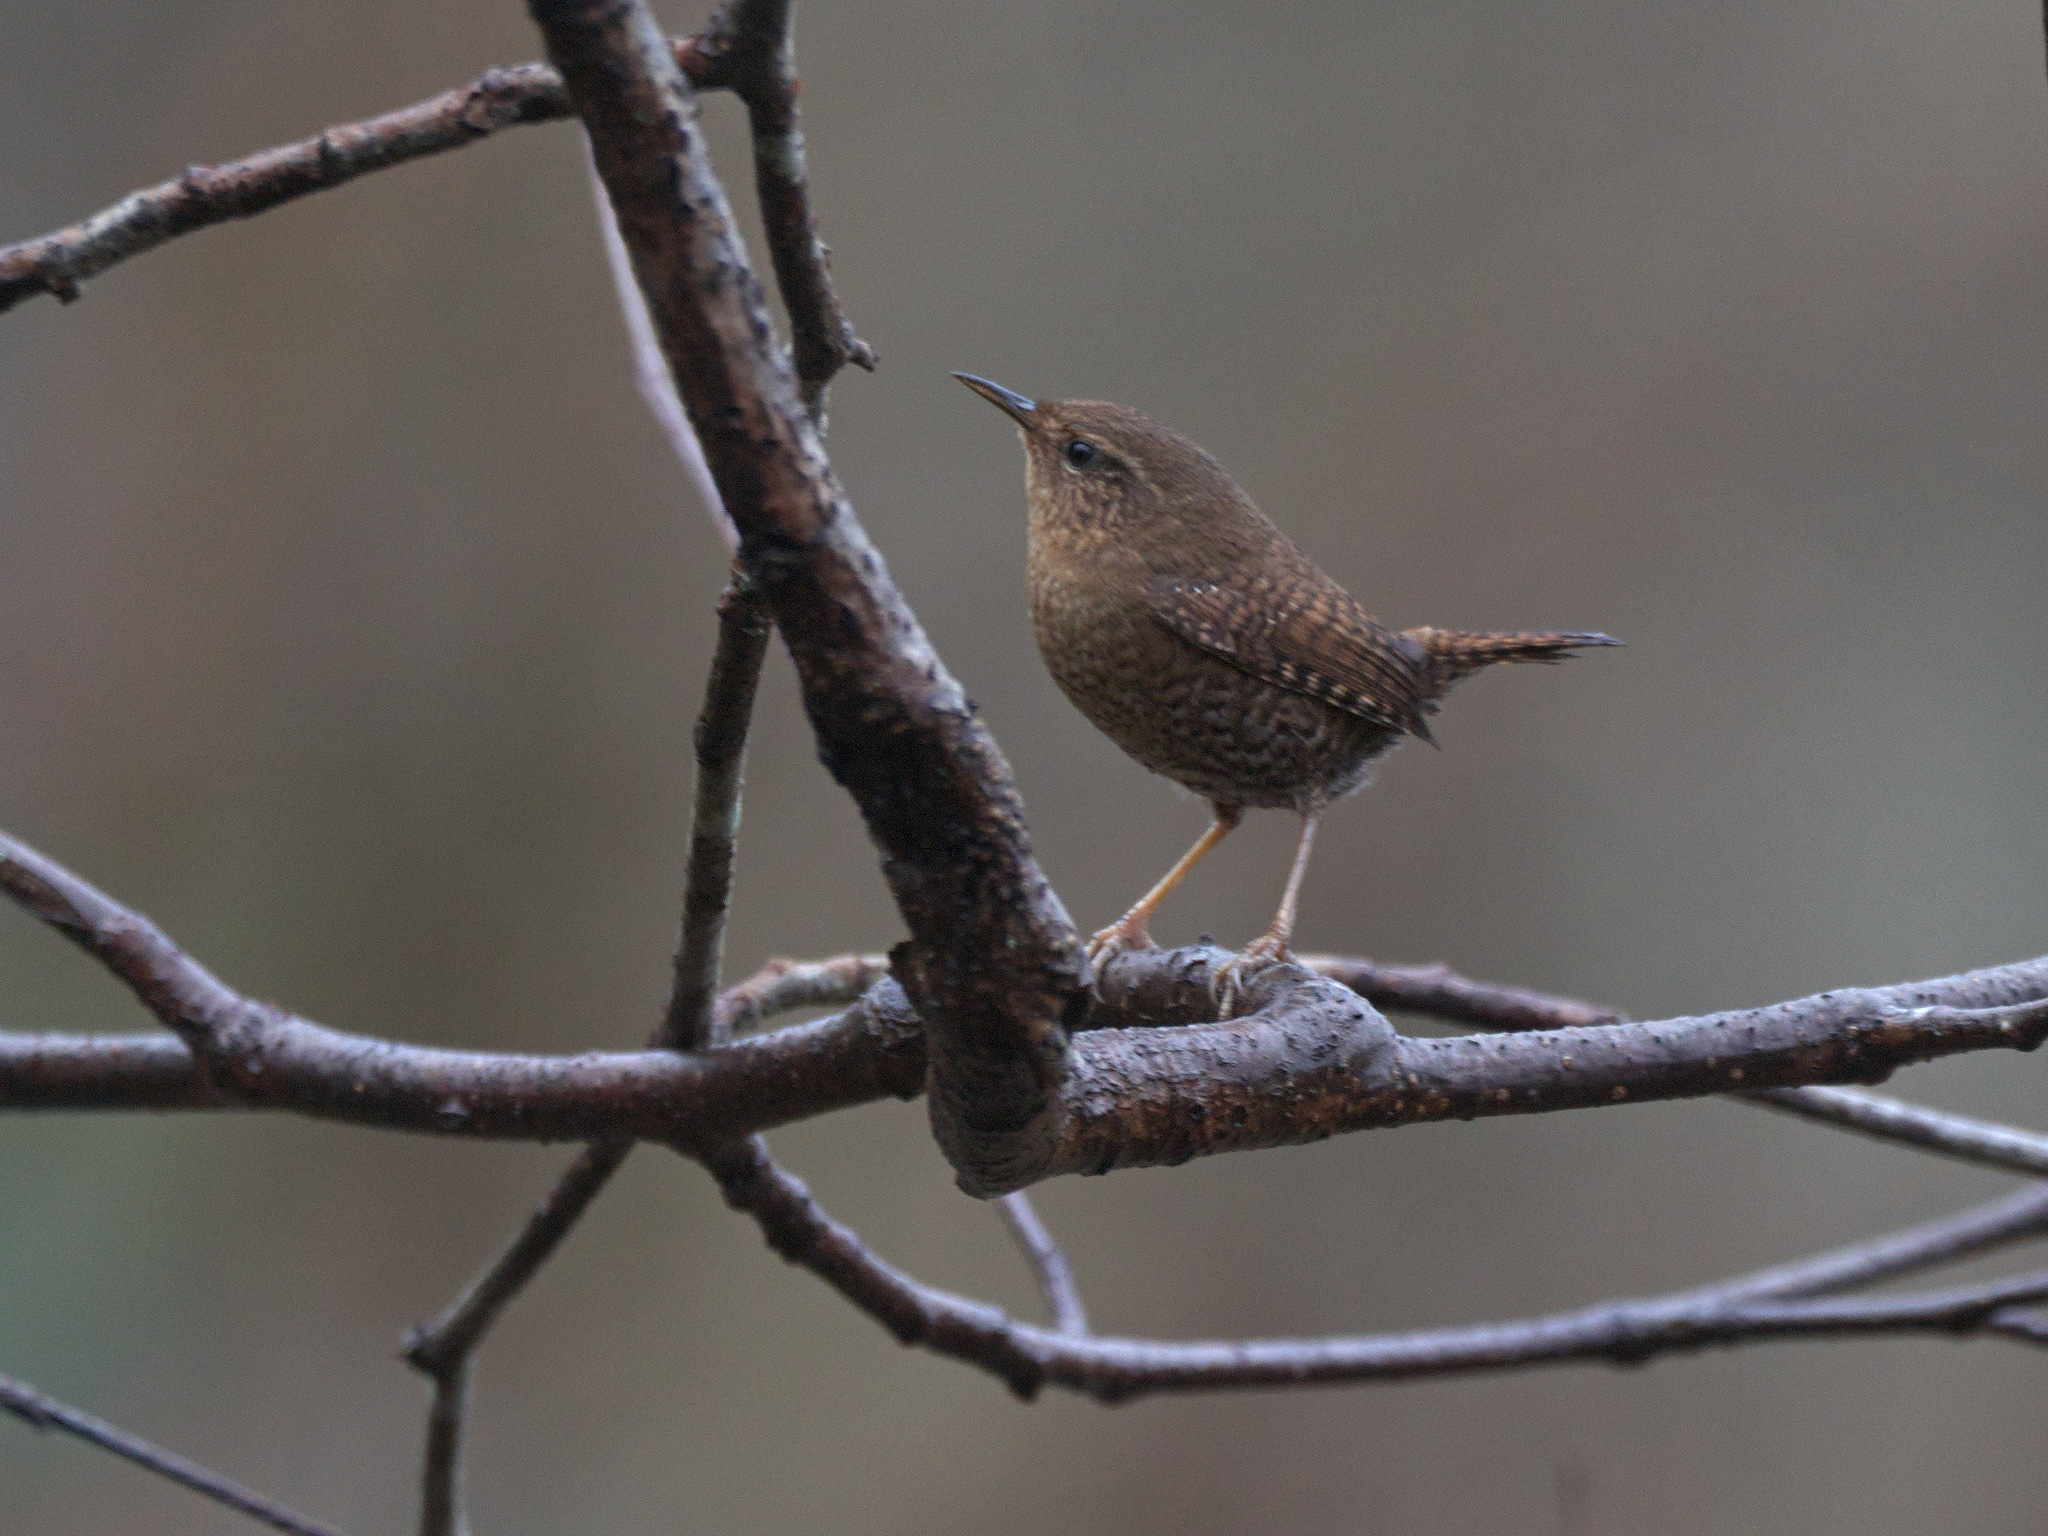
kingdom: Animalia
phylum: Chordata
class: Aves
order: Passeriformes
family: Troglodytidae
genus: Troglodytes
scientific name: Troglodytes pacificus
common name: Pacific wren
